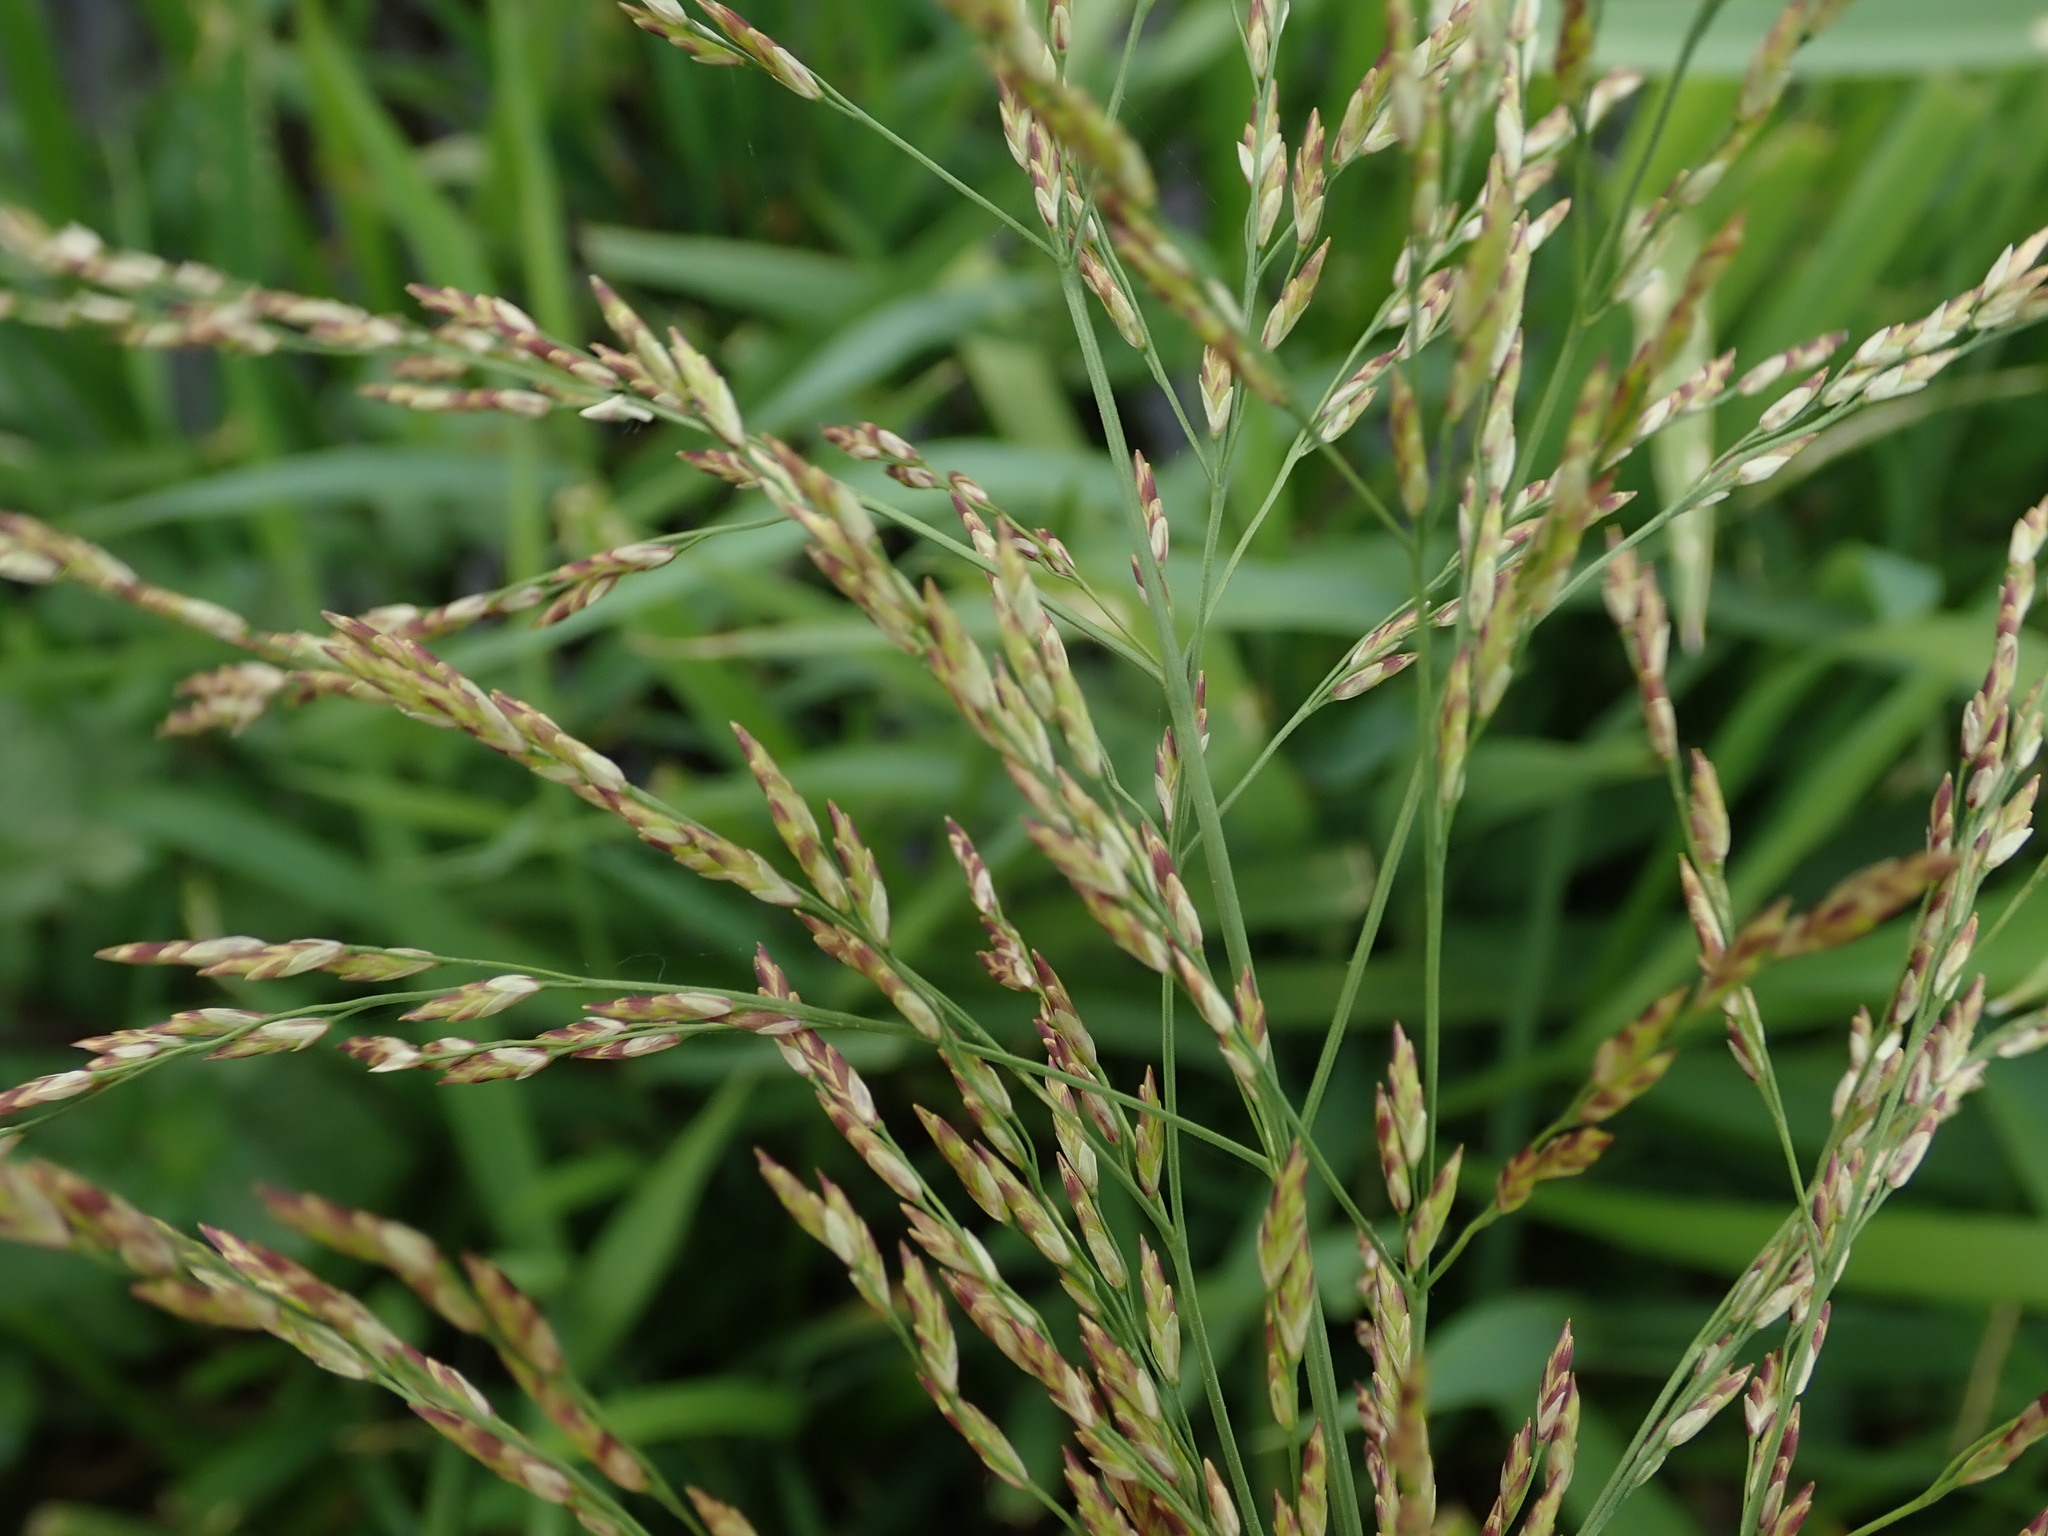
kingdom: Plantae
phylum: Tracheophyta
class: Liliopsida
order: Poales
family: Poaceae
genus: Glyceria
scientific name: Glyceria maxima
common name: Reed mannagrass
